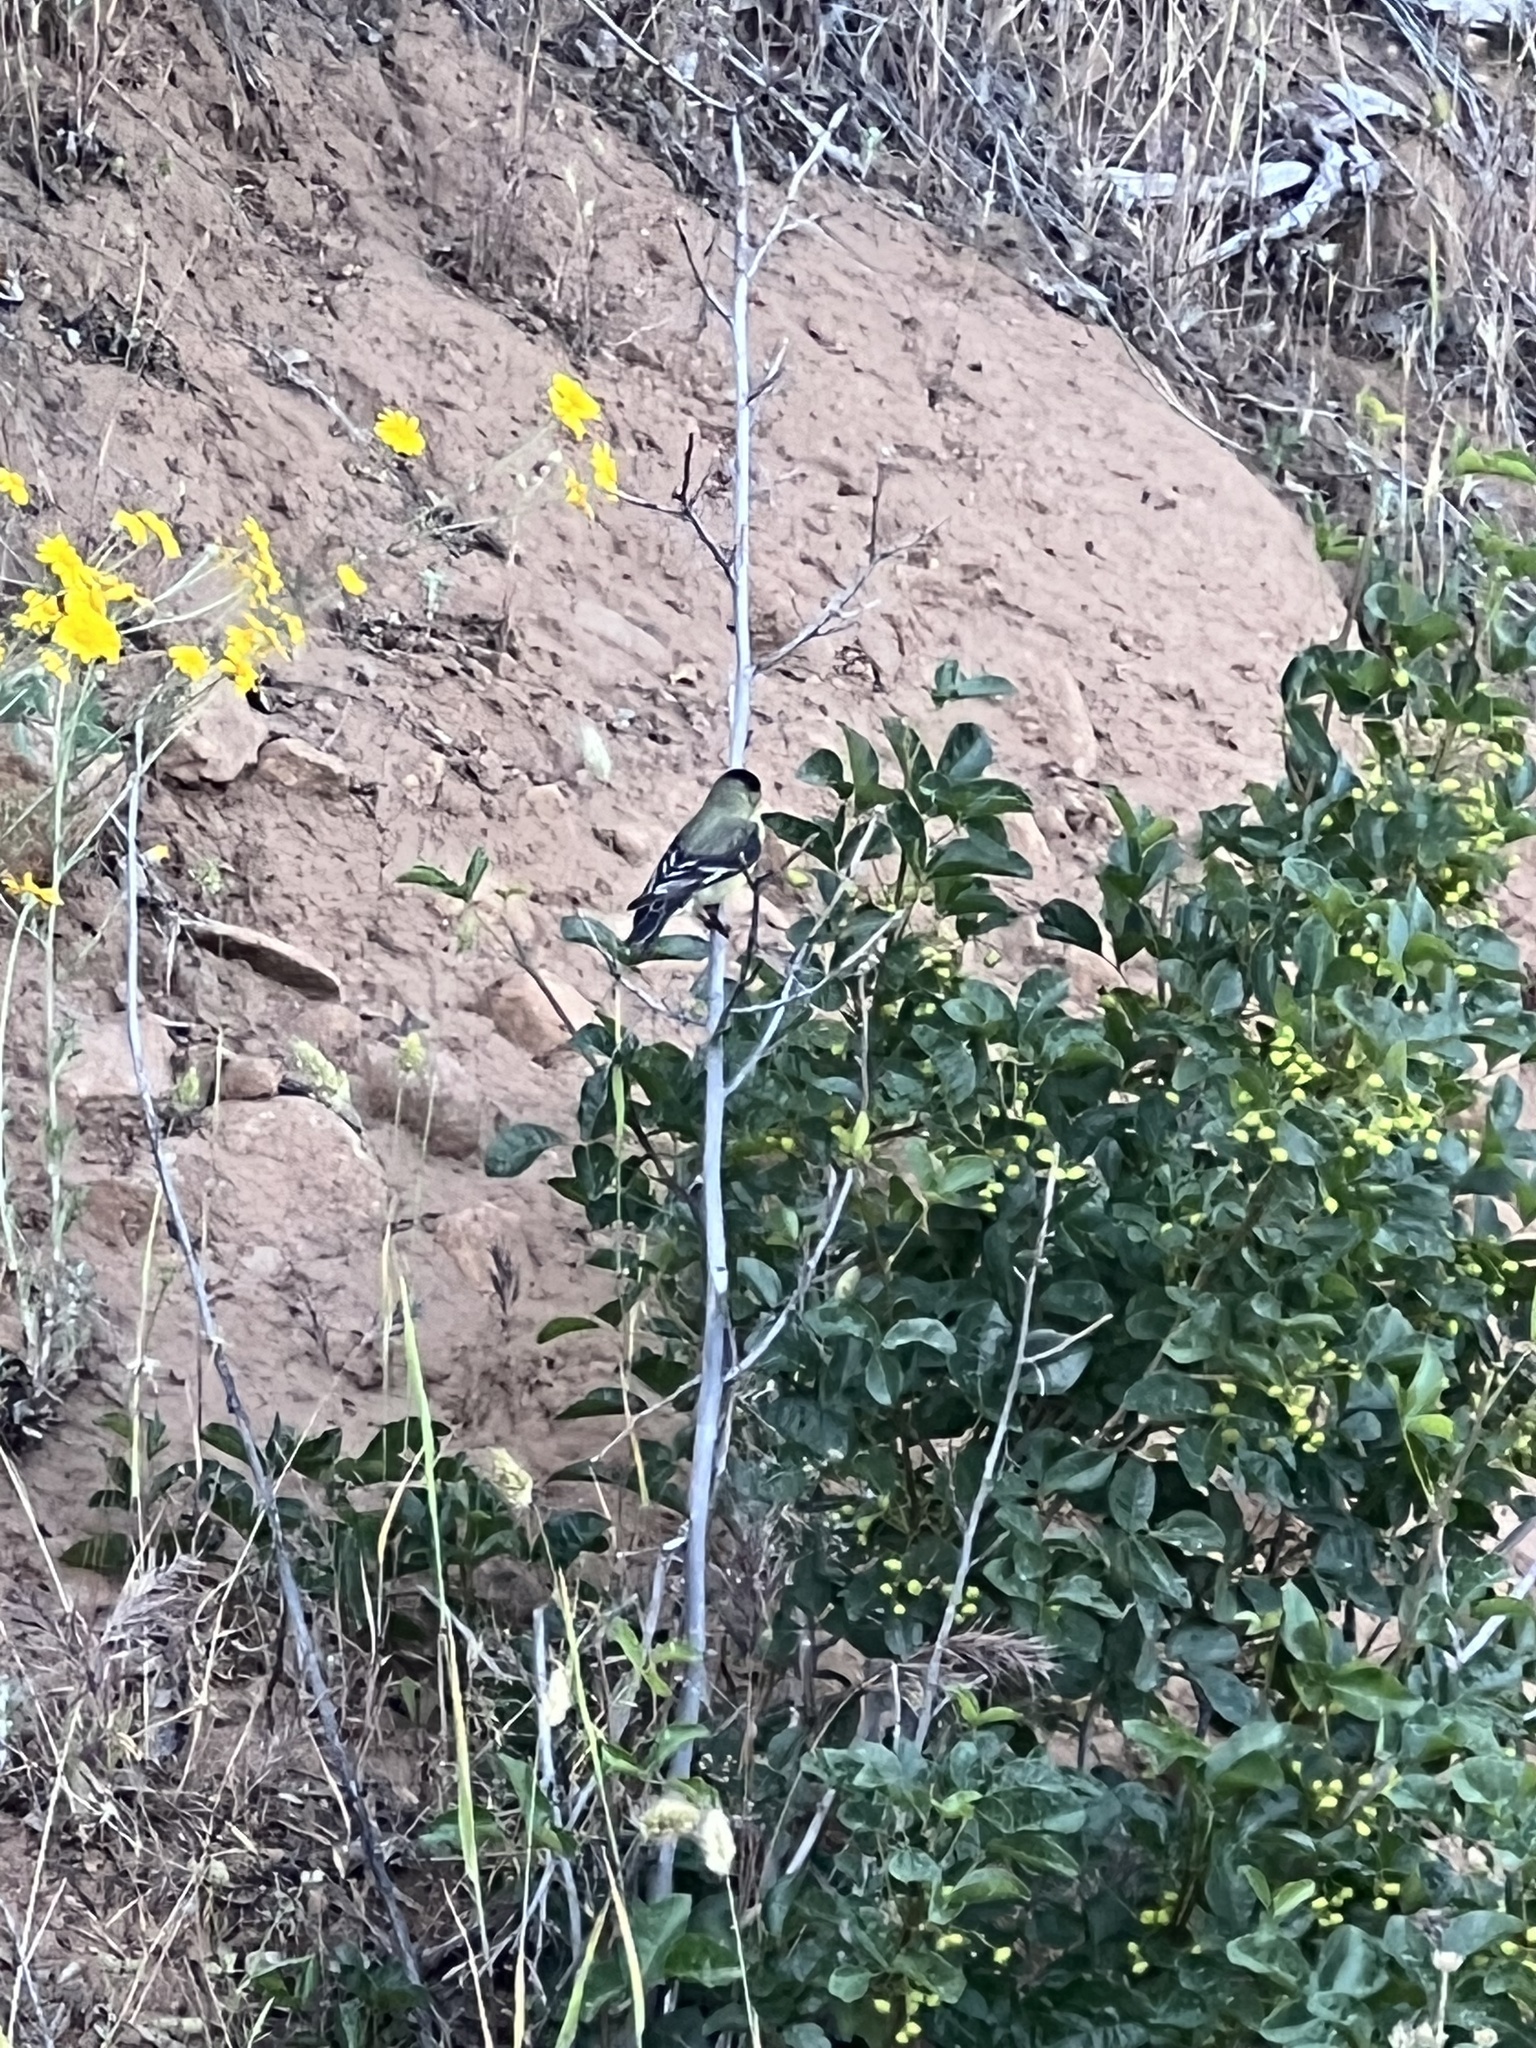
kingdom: Animalia
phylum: Chordata
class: Aves
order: Passeriformes
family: Fringillidae
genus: Spinus
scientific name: Spinus psaltria
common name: Lesser goldfinch
